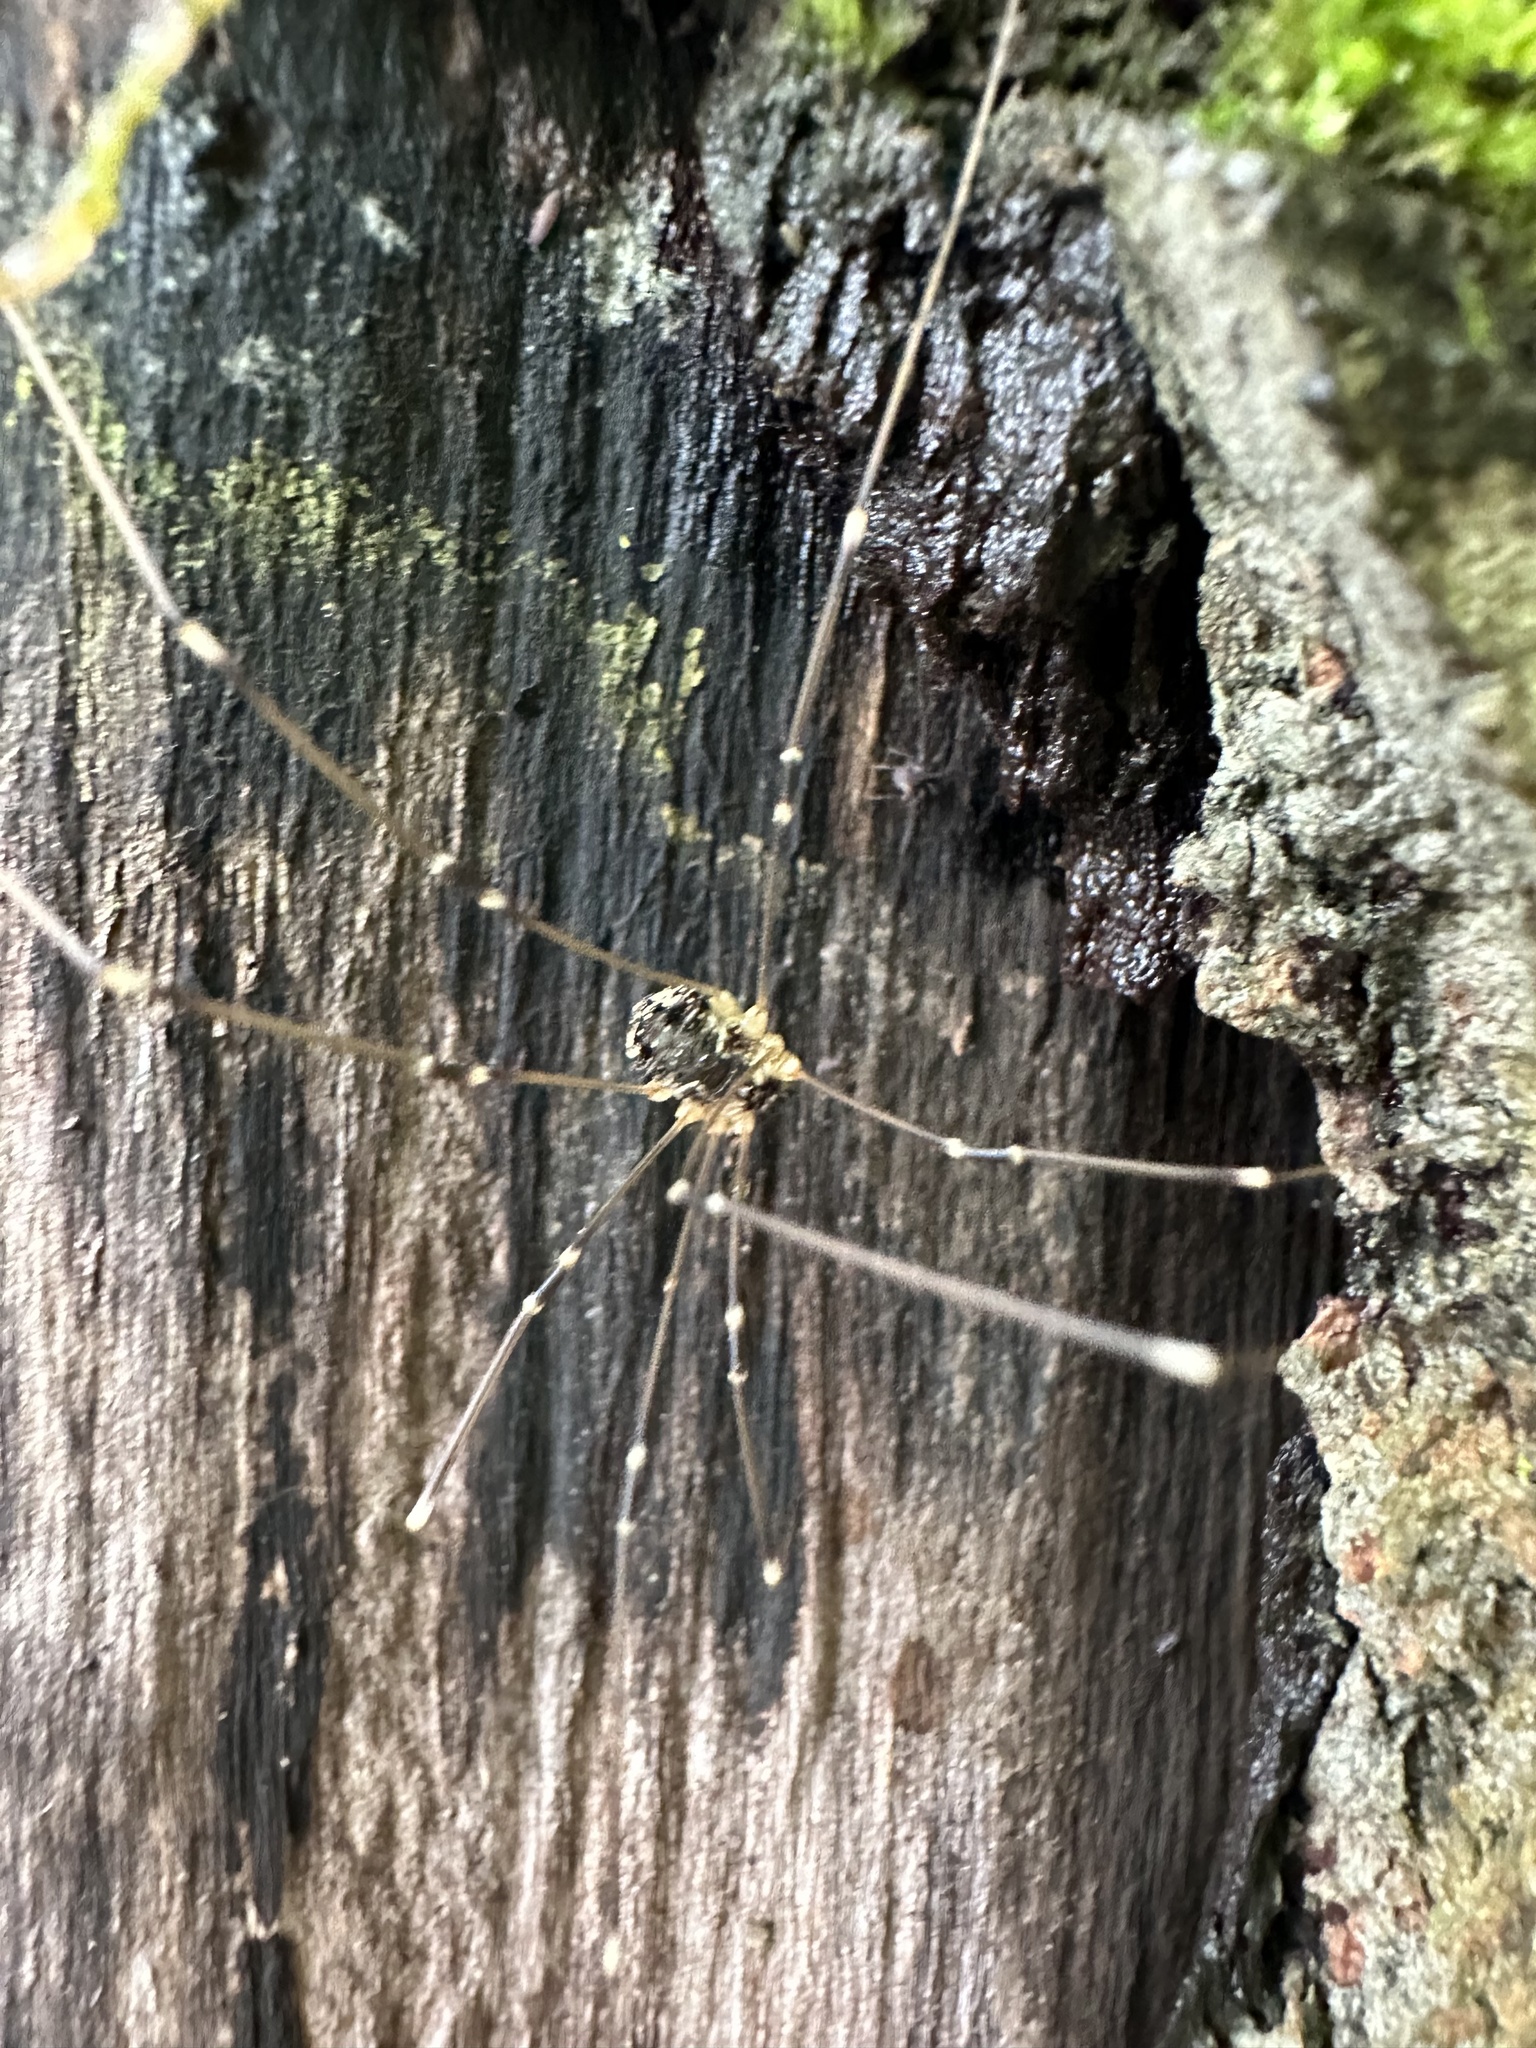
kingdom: Animalia
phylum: Arthropoda
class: Arachnida
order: Opiliones
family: Sclerosomatidae
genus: Leiobunum
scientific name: Leiobunum gracile
